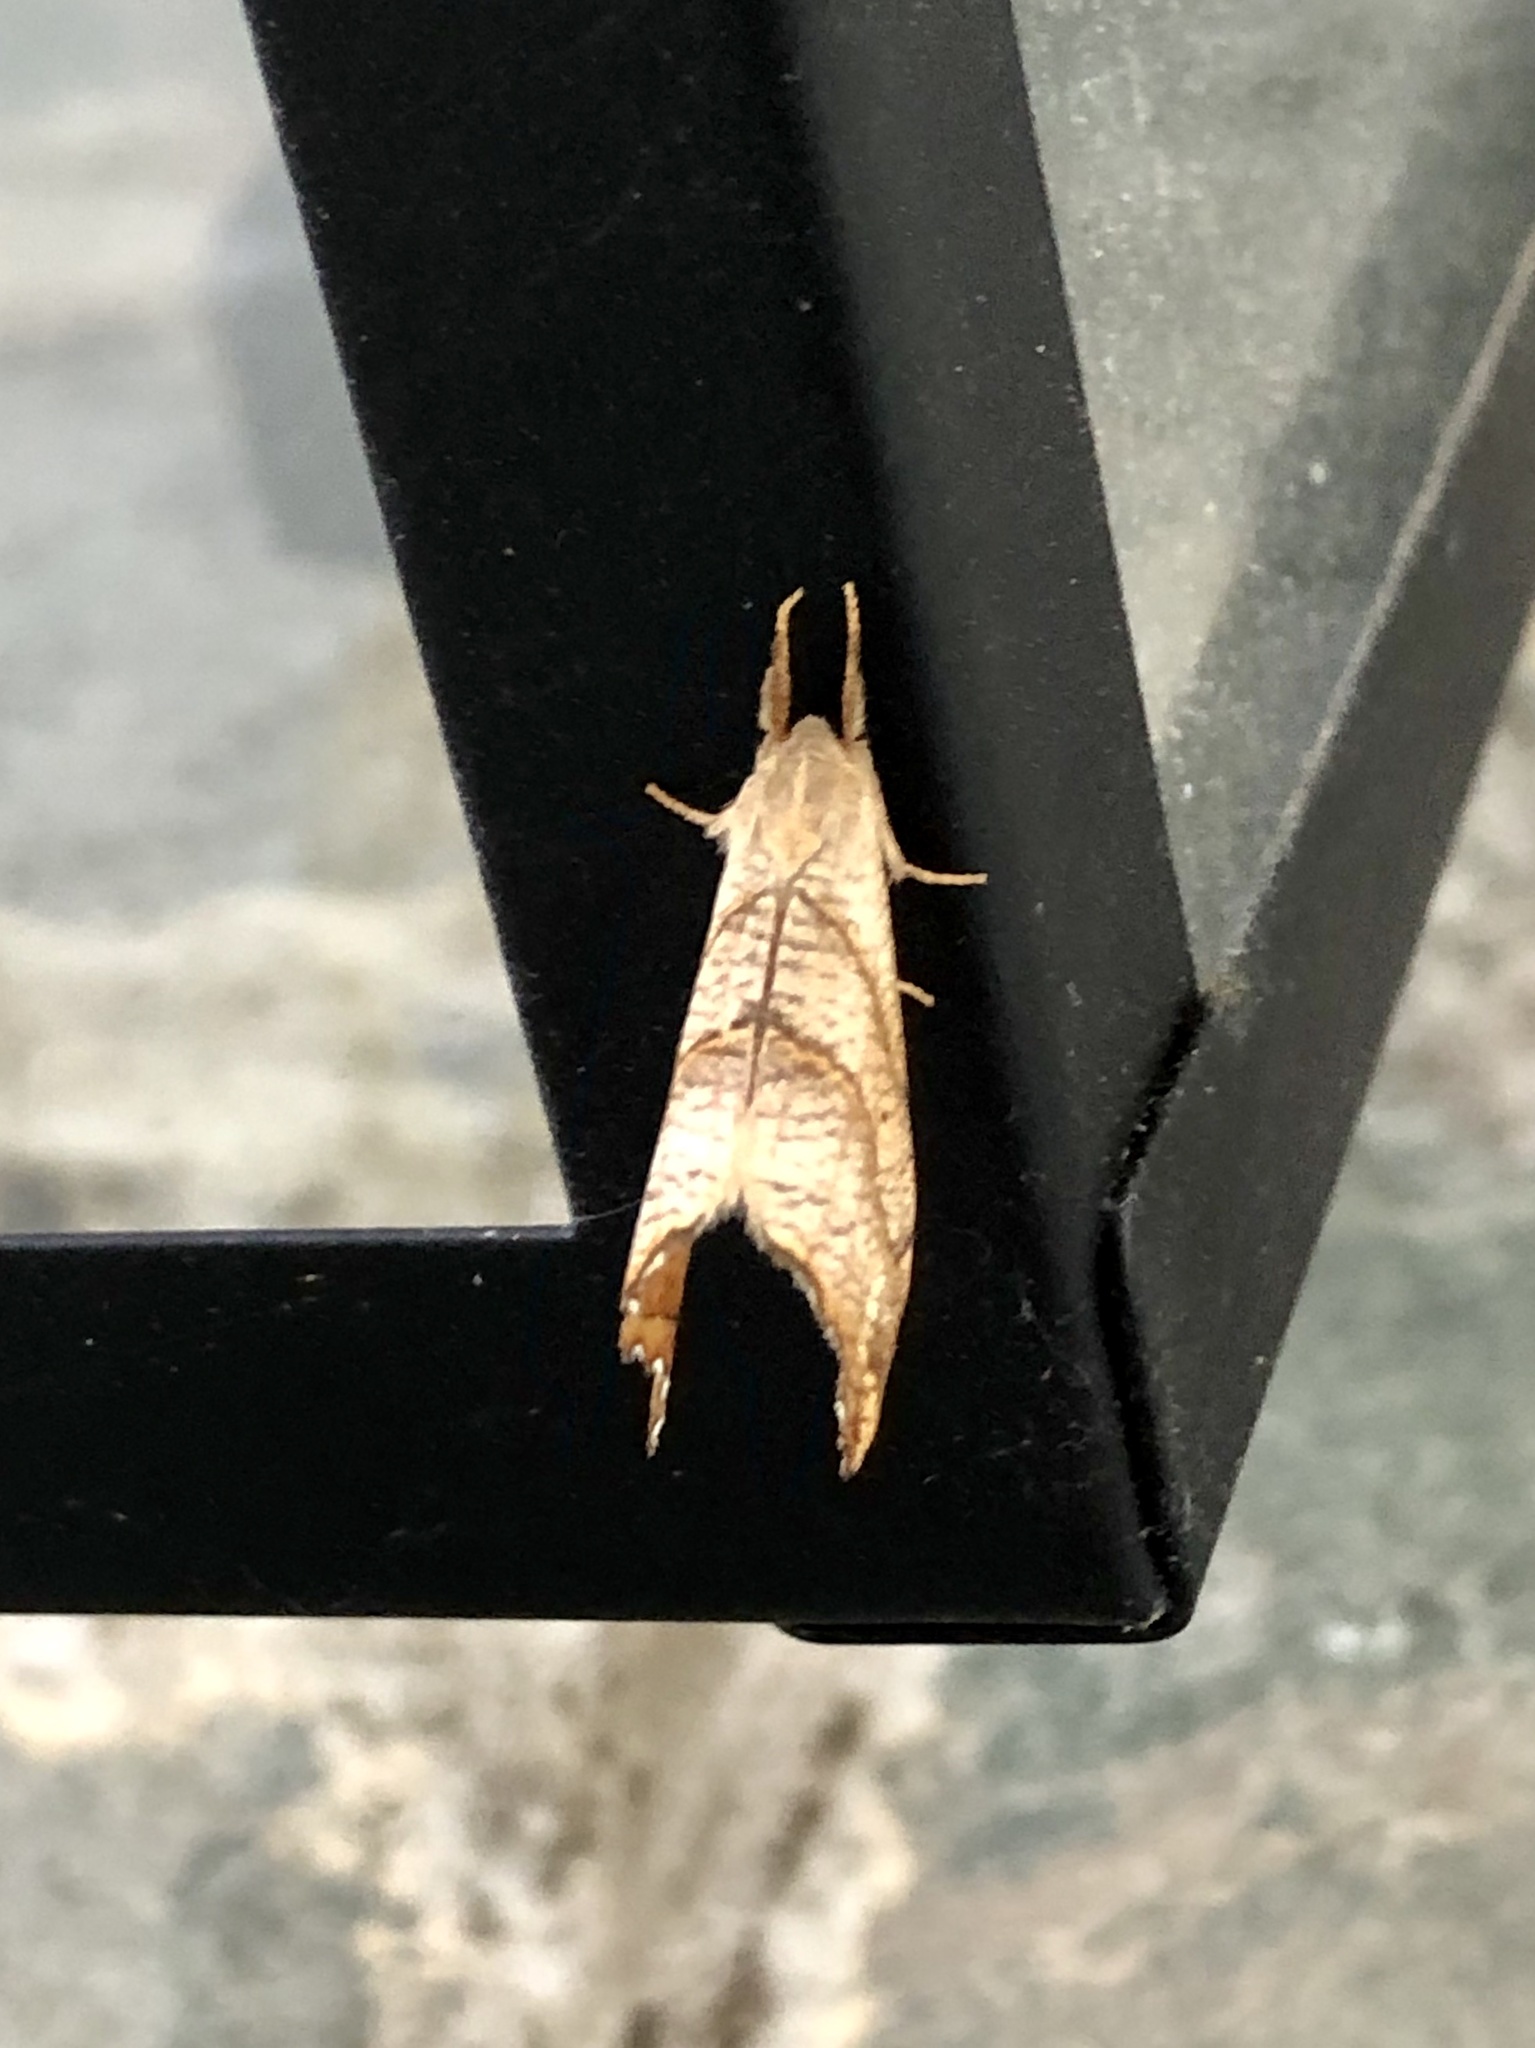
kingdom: Animalia
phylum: Arthropoda
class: Insecta
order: Lepidoptera
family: Drepanidae
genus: Falcaria
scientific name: Falcaria bilineata
